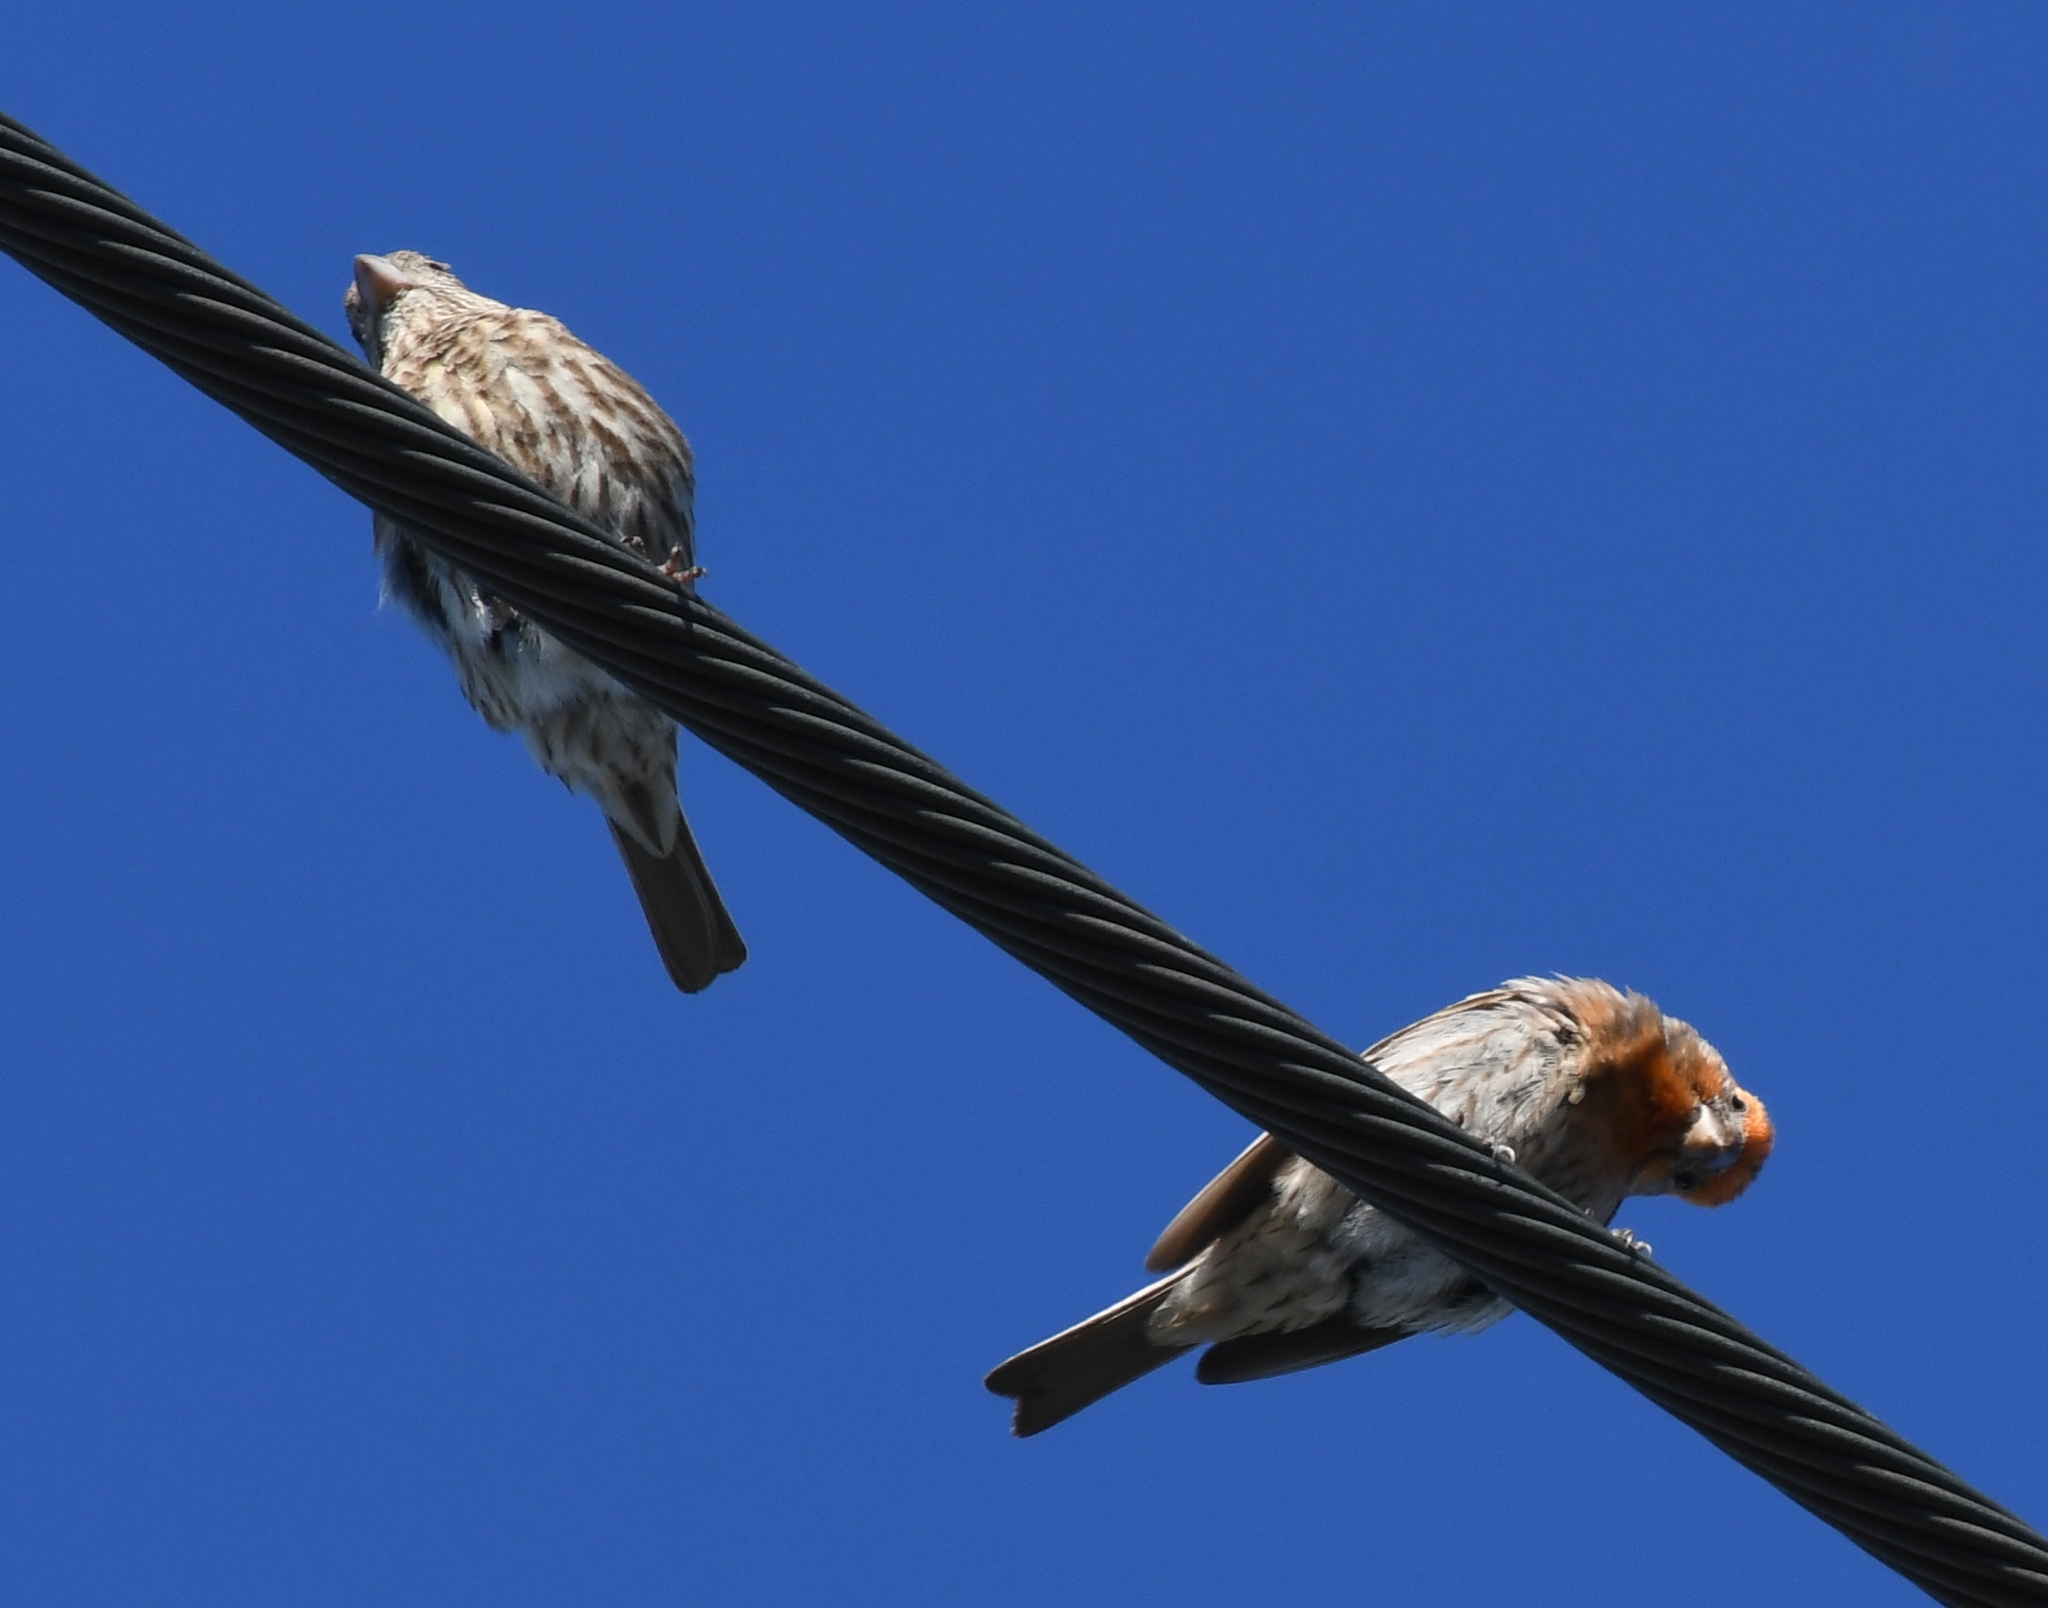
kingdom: Animalia
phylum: Chordata
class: Aves
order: Passeriformes
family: Fringillidae
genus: Haemorhous
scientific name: Haemorhous mexicanus
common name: House finch
